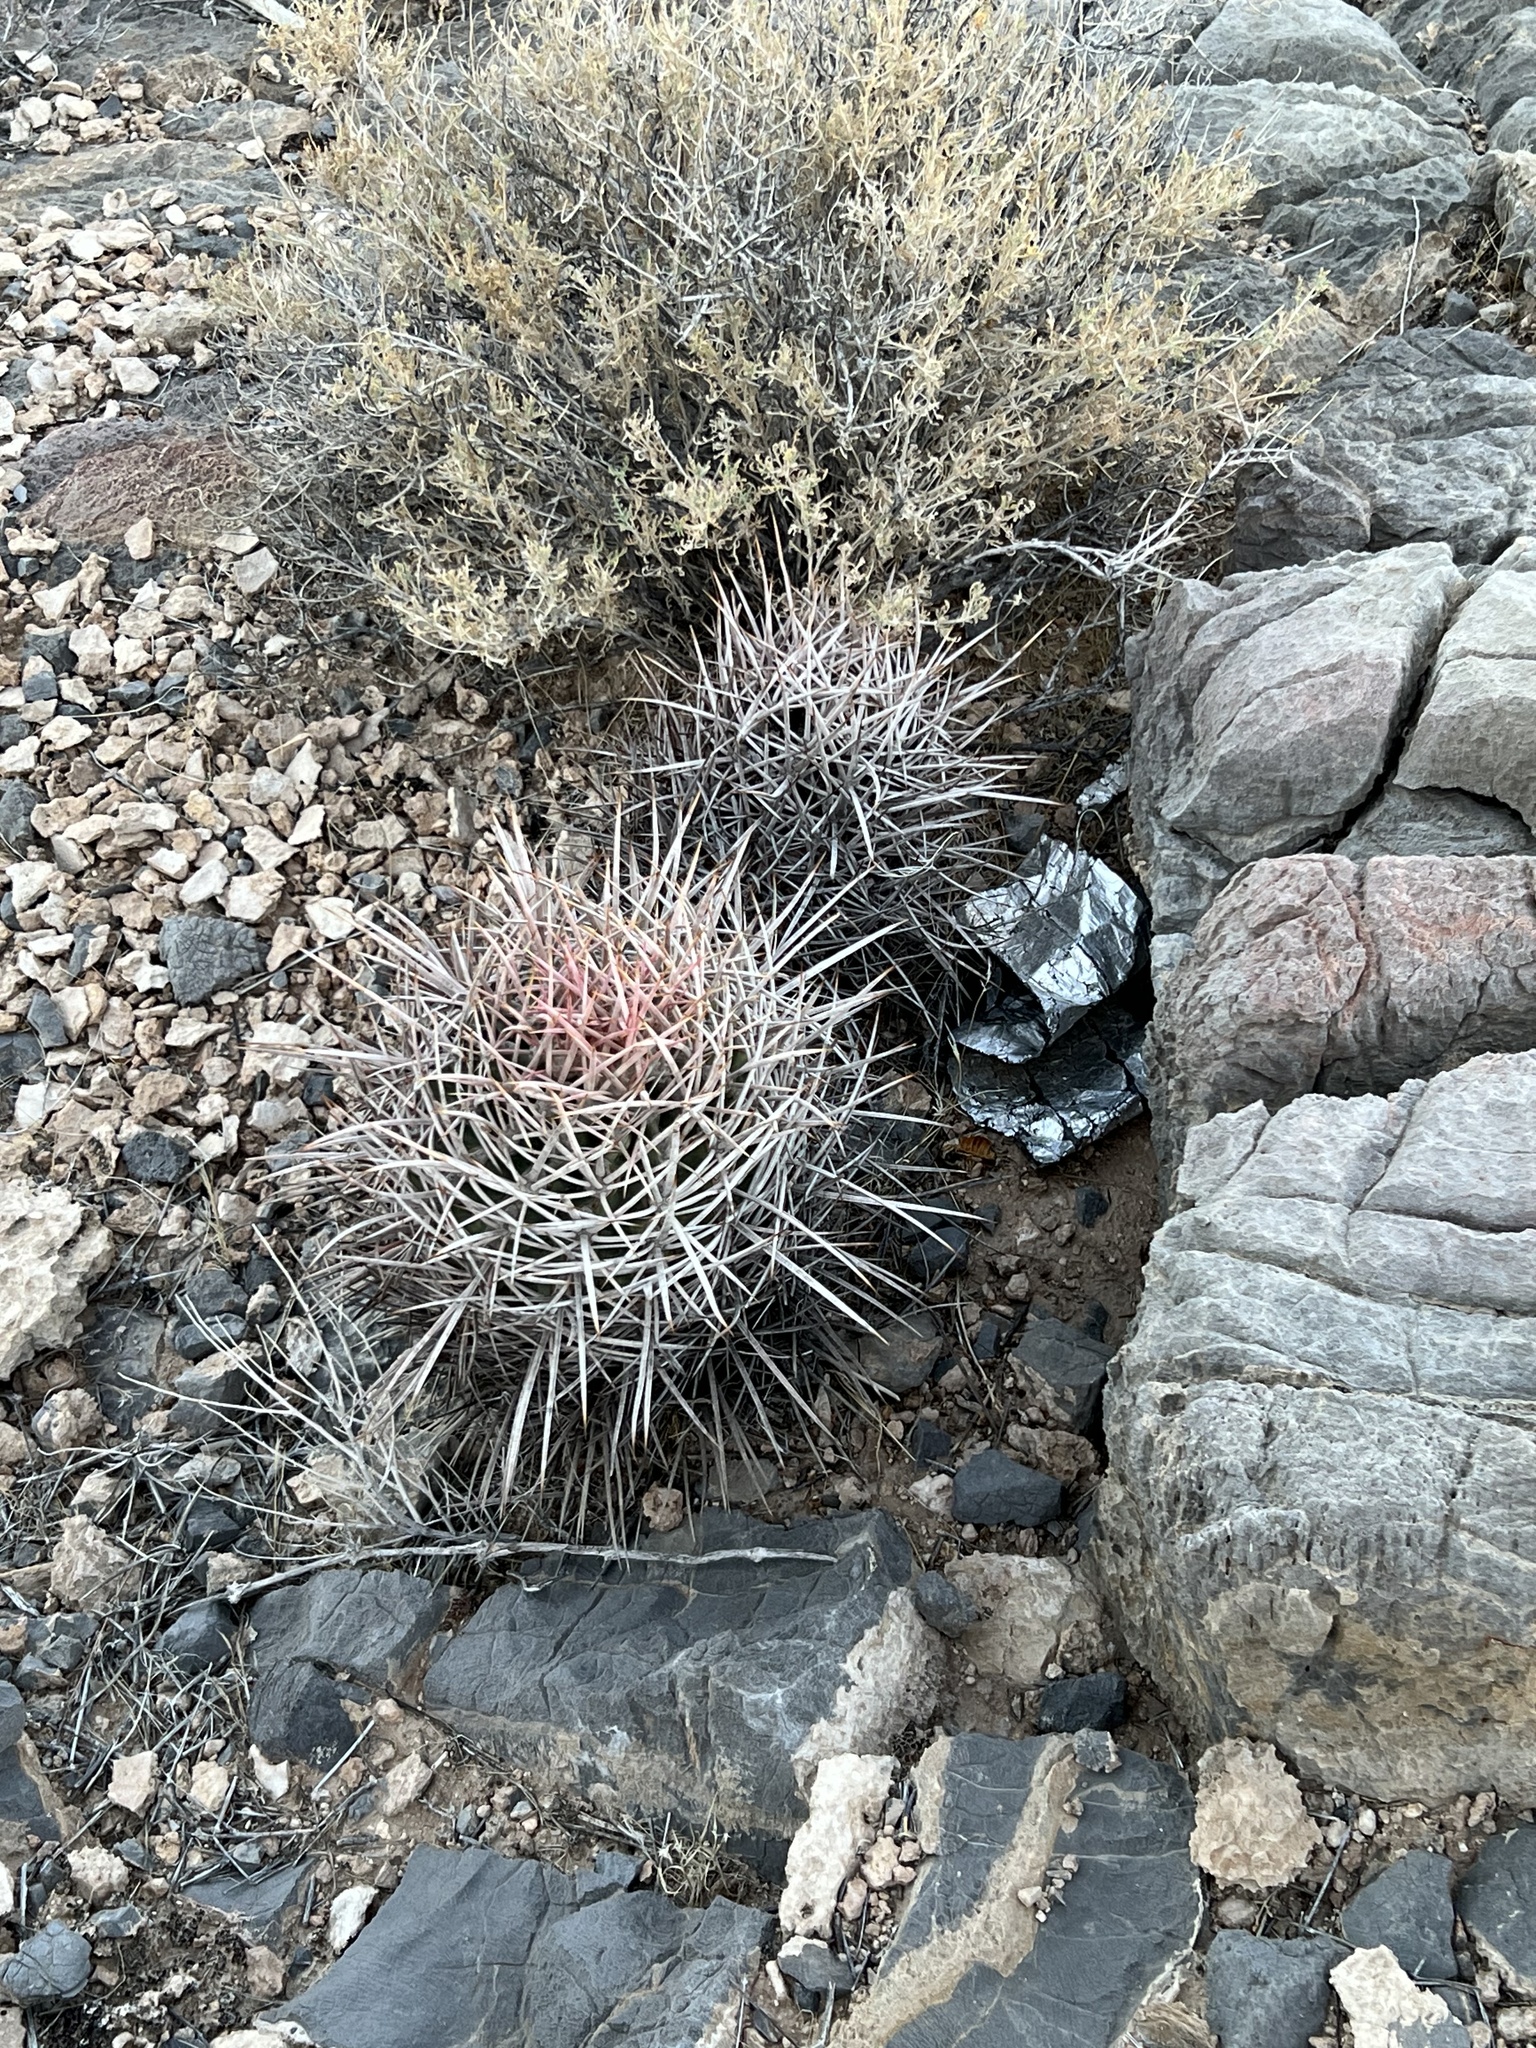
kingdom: Plantae
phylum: Tracheophyta
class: Magnoliopsida
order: Caryophyllales
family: Cactaceae
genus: Echinocactus
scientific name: Echinocactus polycephalus
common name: Cottontop cactus
